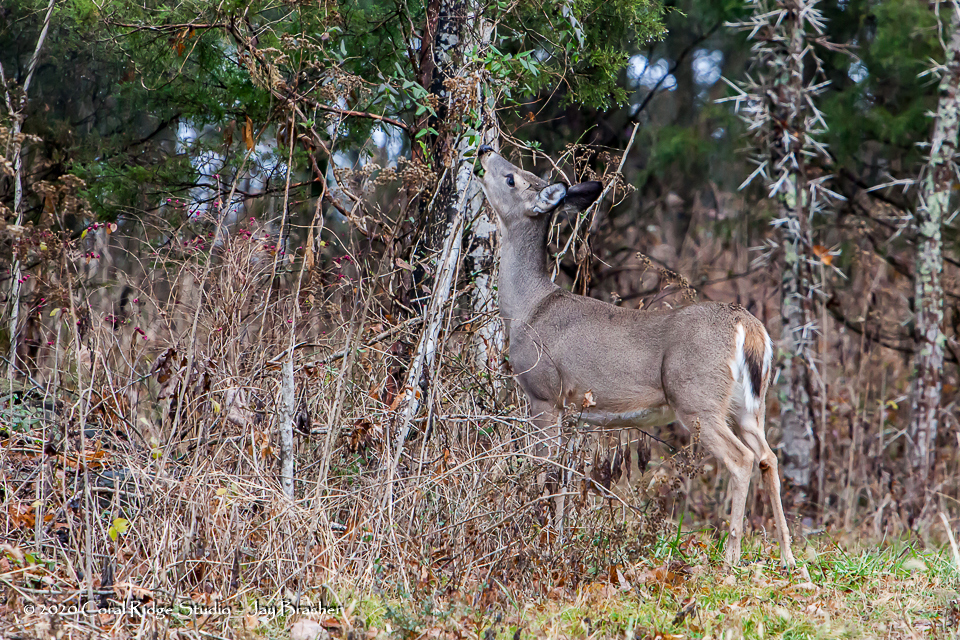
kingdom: Animalia
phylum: Chordata
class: Mammalia
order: Artiodactyla
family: Cervidae
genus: Odocoileus
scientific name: Odocoileus virginianus
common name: White-tailed deer
